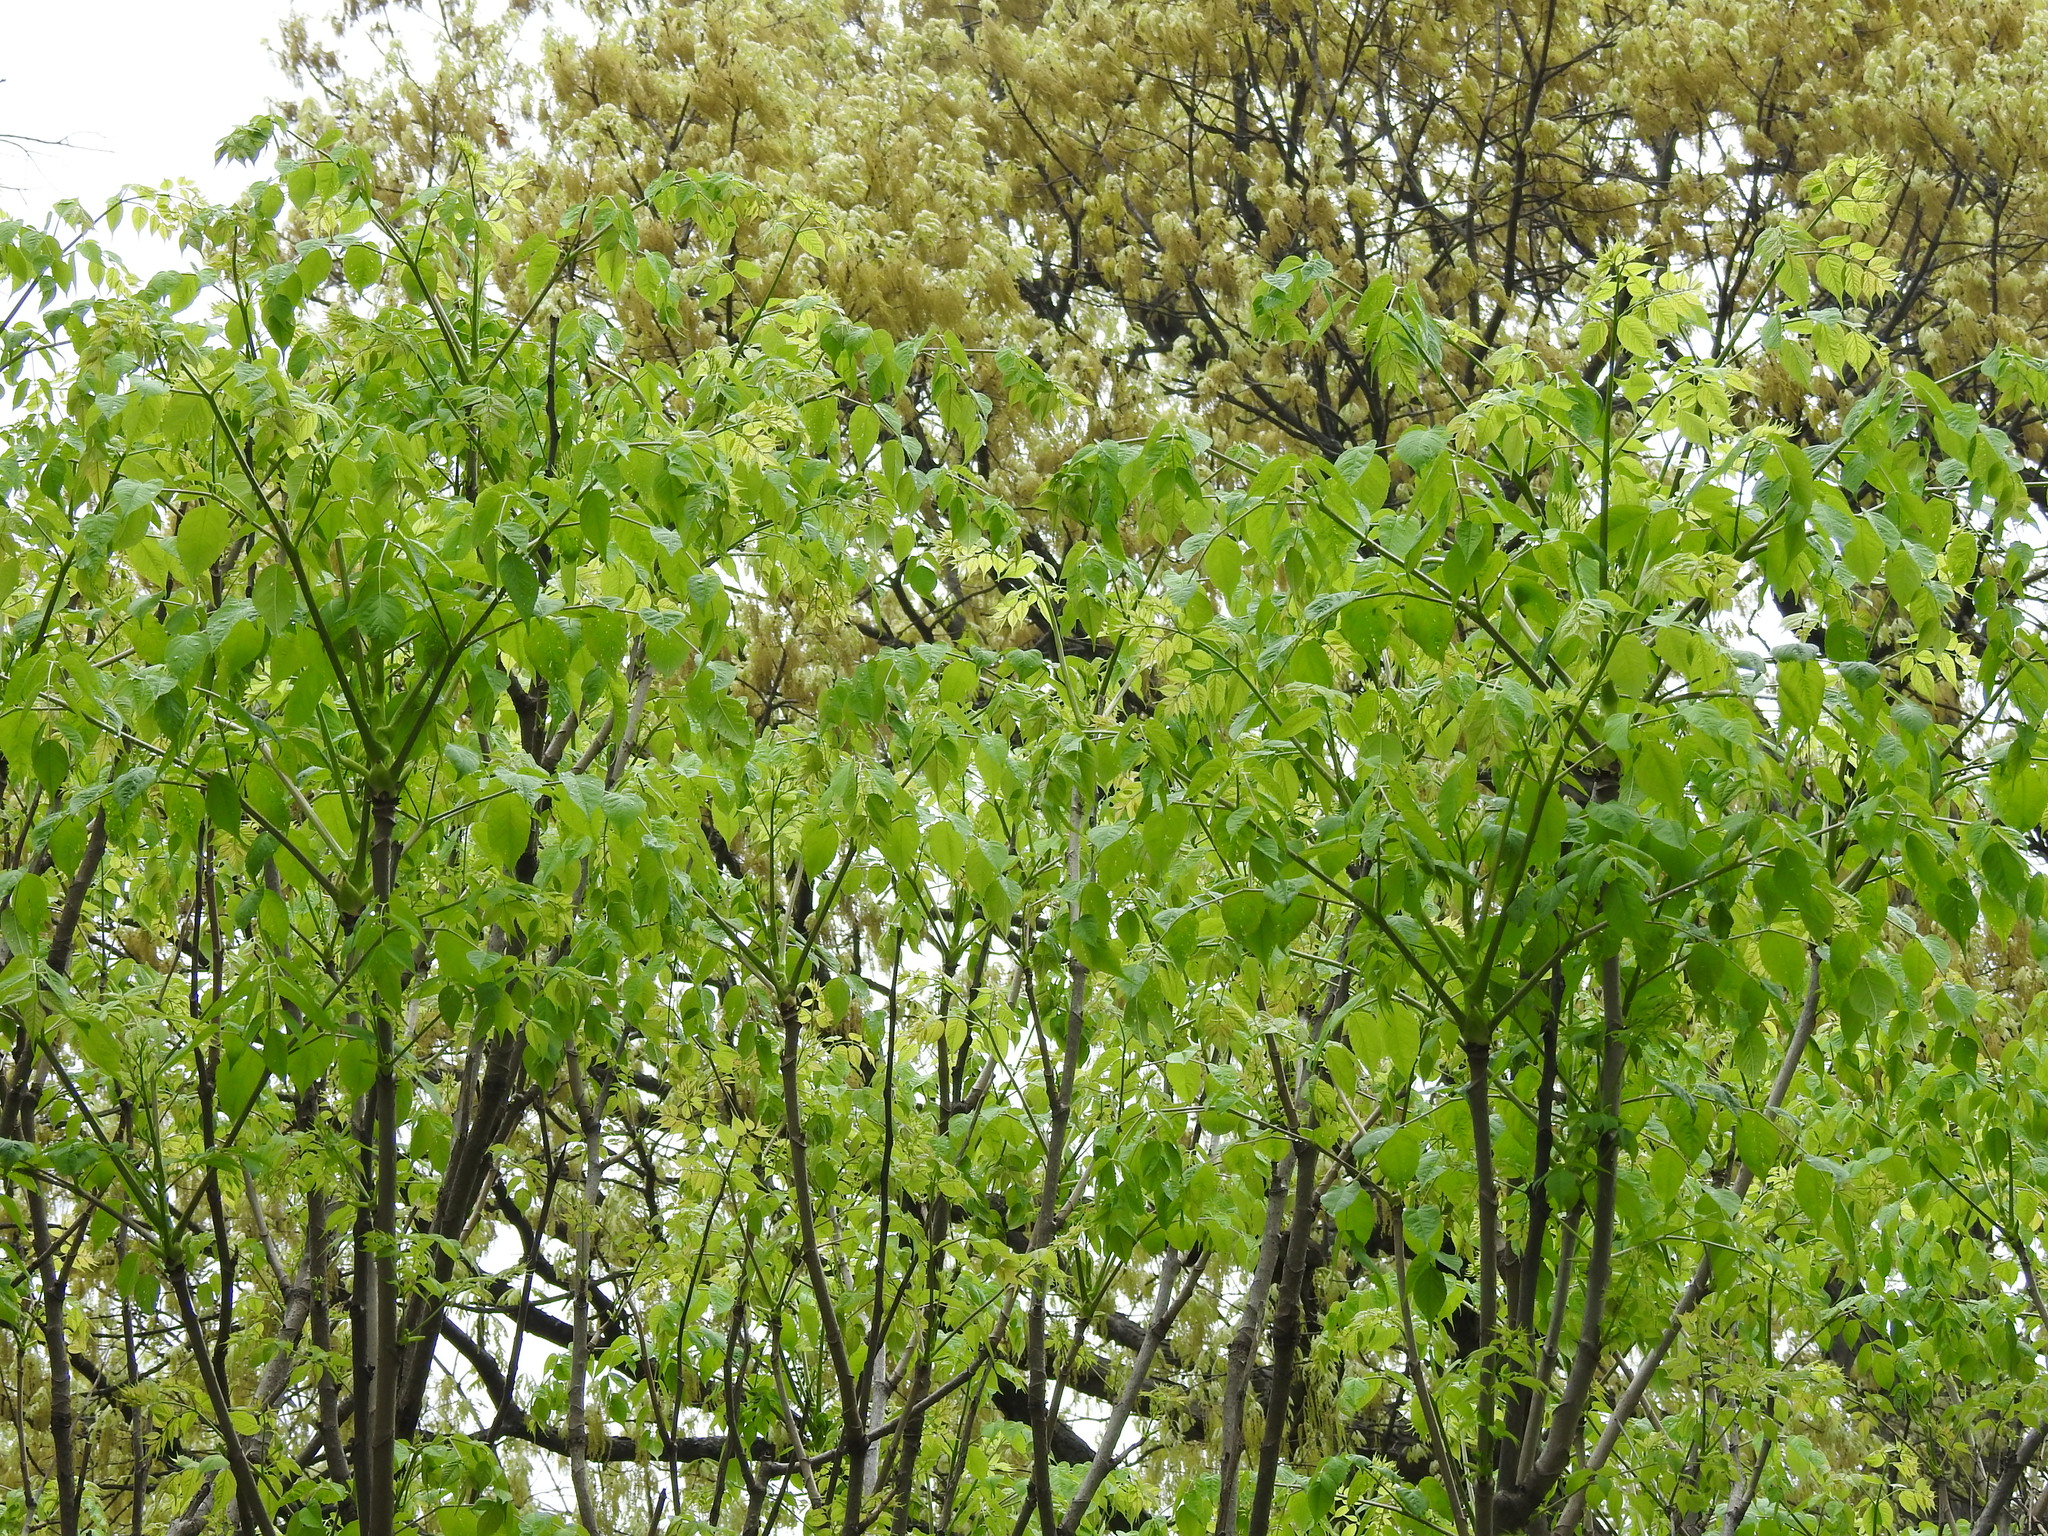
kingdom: Plantae
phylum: Tracheophyta
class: Magnoliopsida
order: Apiales
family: Araliaceae
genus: Aralia
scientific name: Aralia spinosa
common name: Hercules'-club
